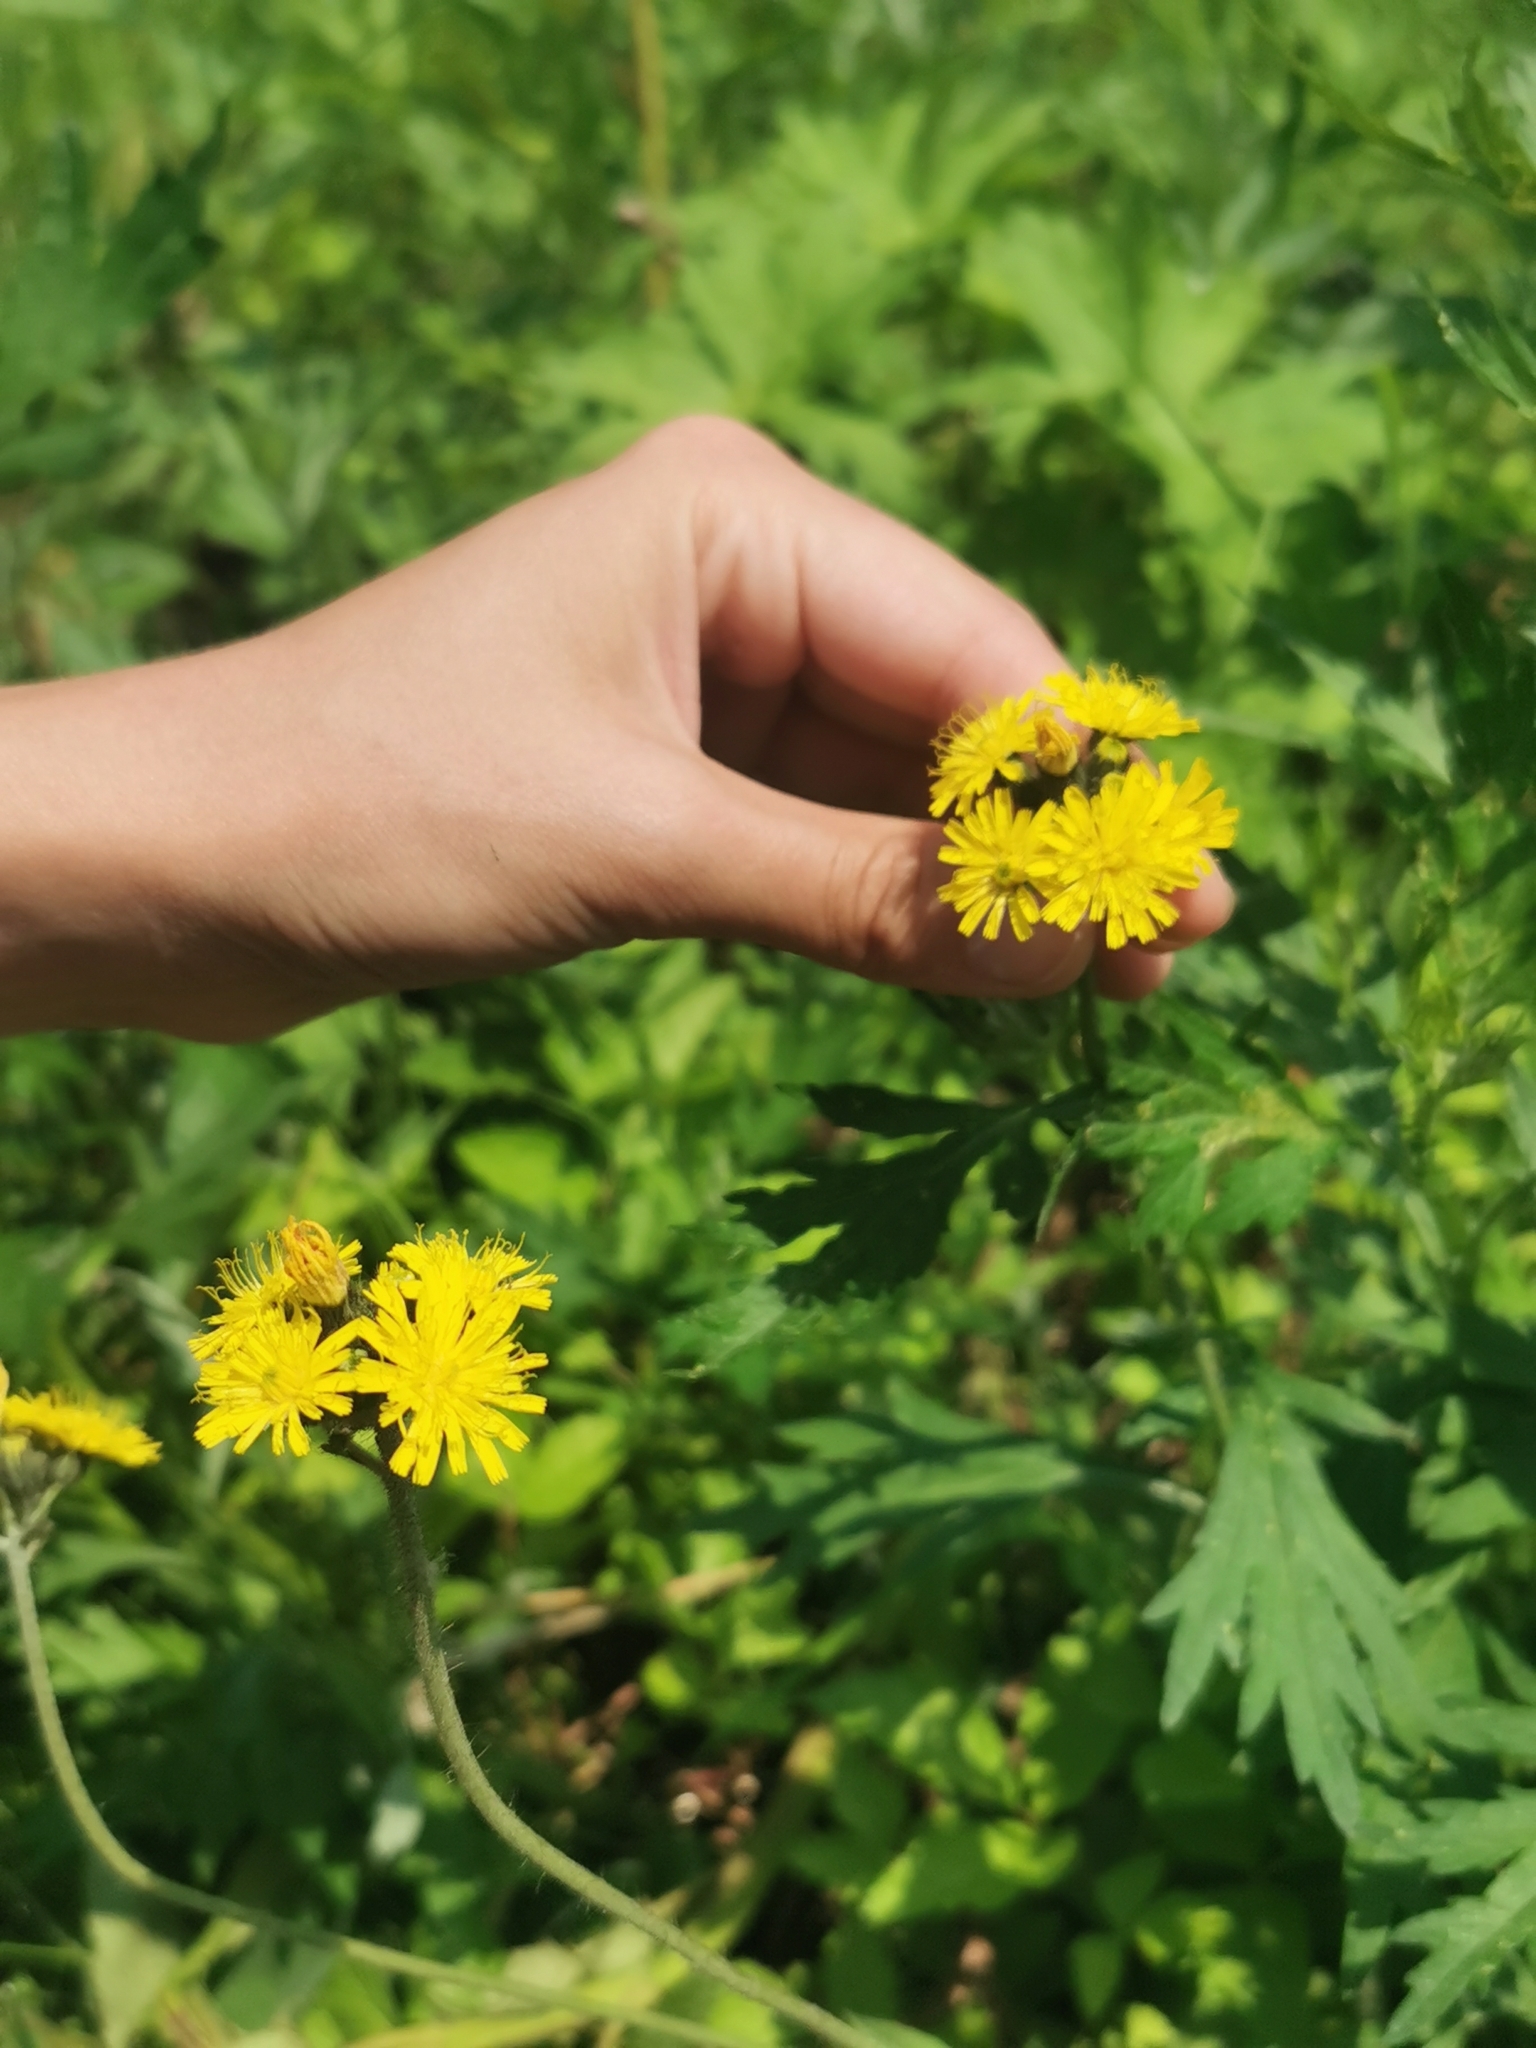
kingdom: Plantae
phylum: Tracheophyta
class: Magnoliopsida
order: Asterales
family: Asteraceae
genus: Pilosella
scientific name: Pilosella floribunda
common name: Glaucous hawkweed
